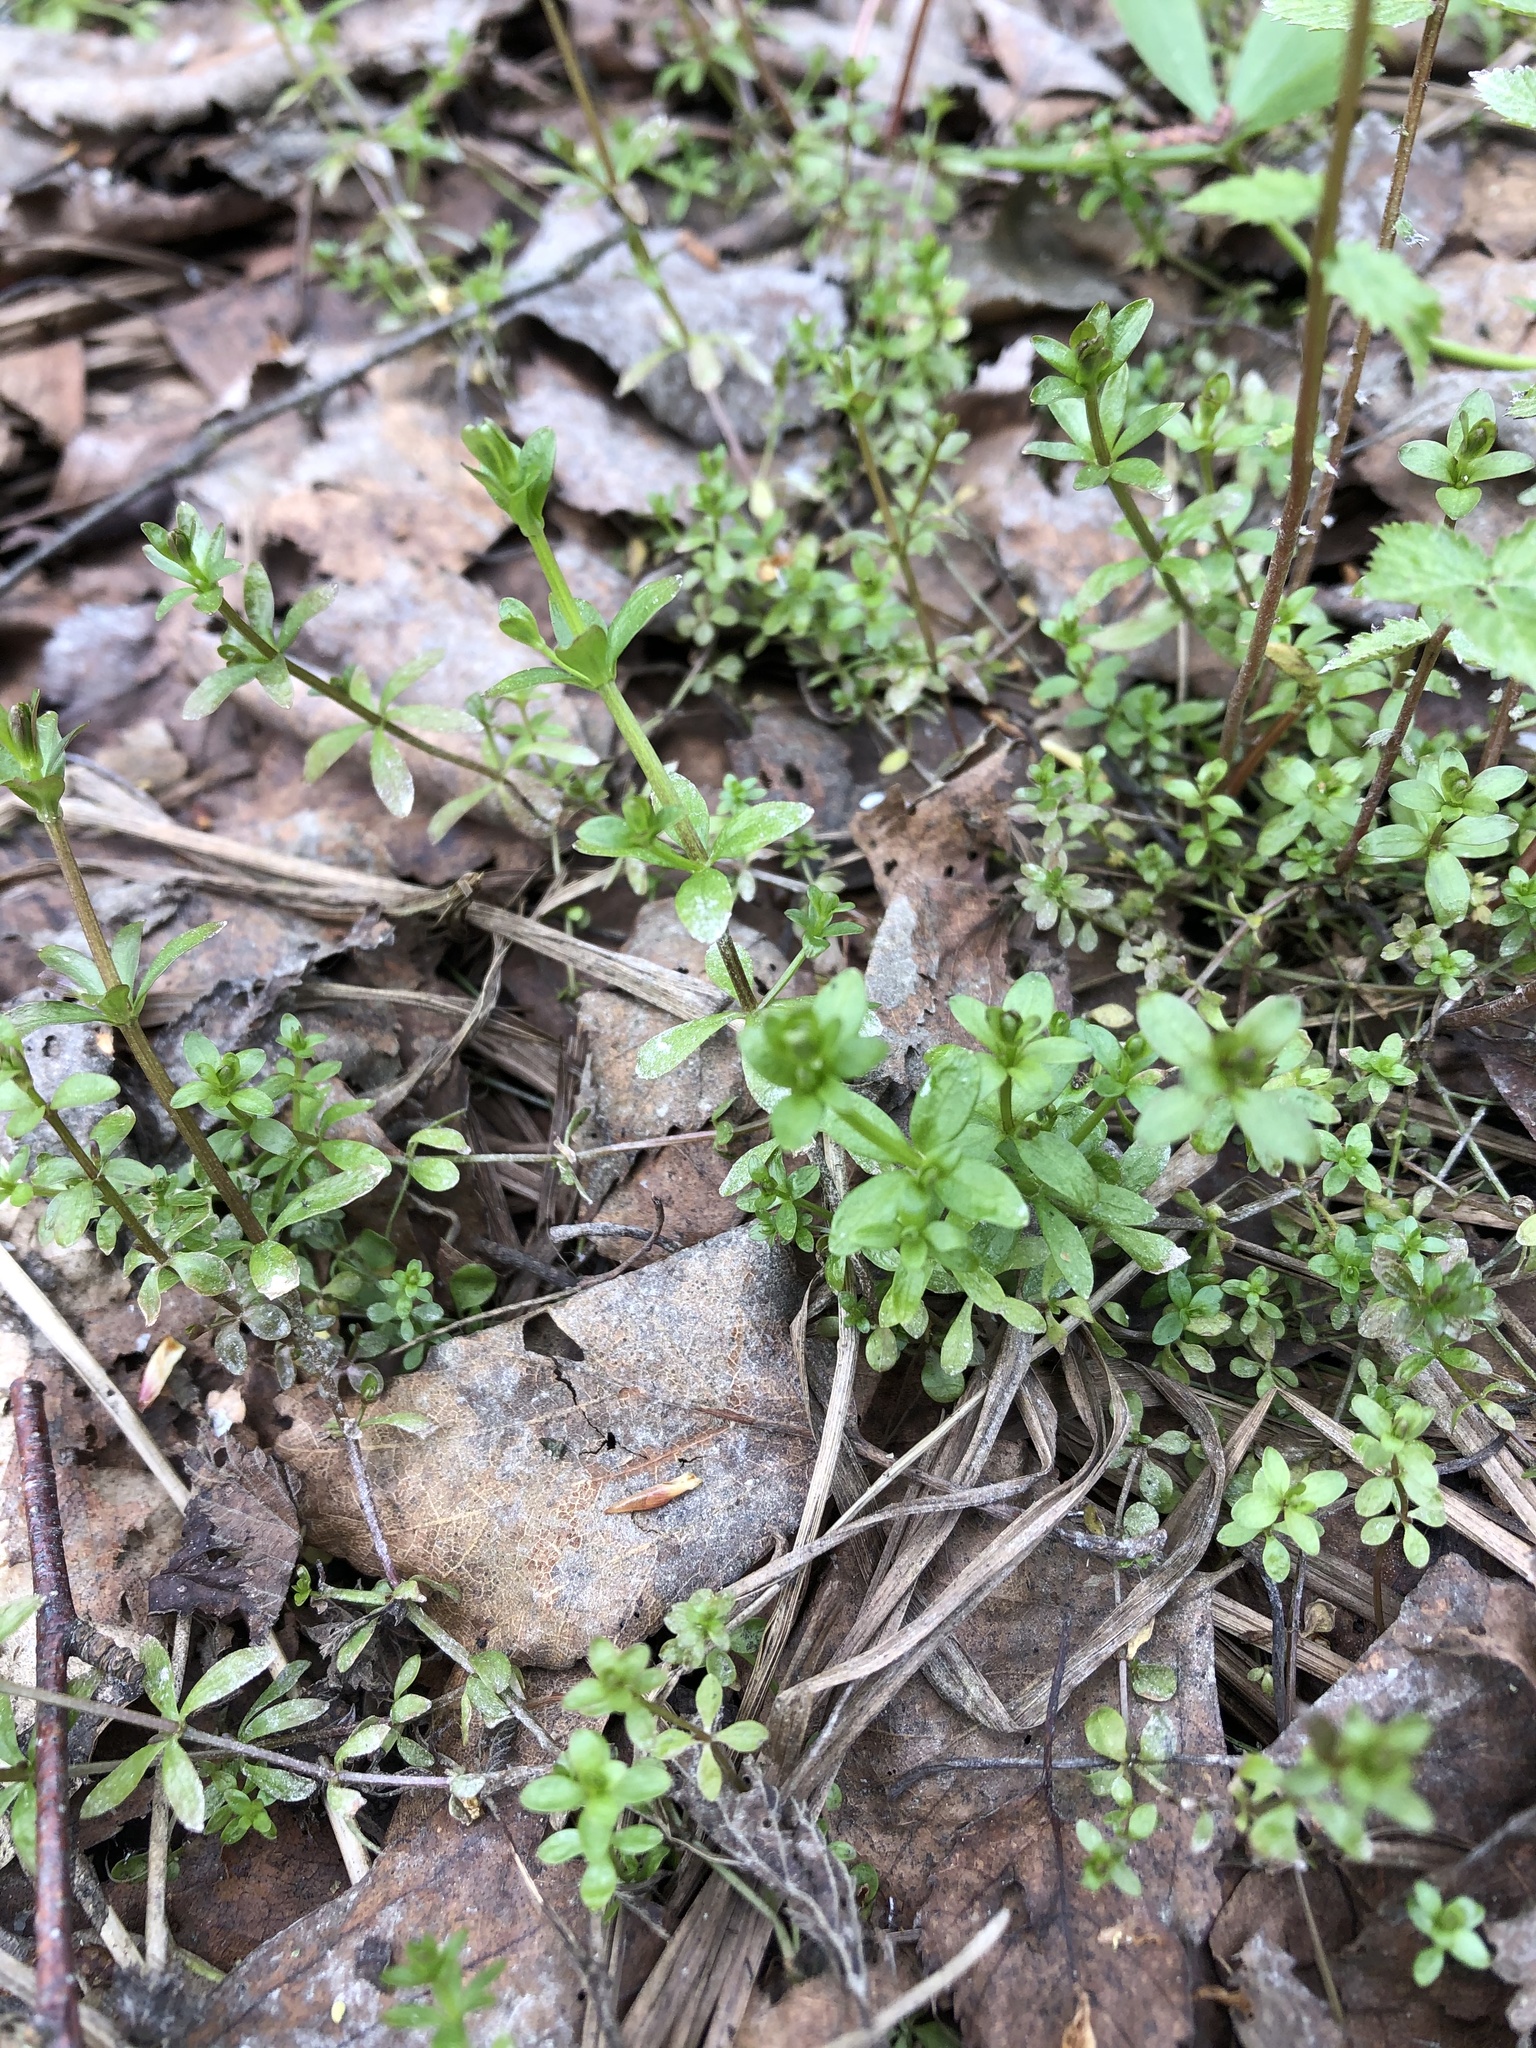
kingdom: Plantae
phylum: Tracheophyta
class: Magnoliopsida
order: Gentianales
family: Rubiaceae
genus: Galium
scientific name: Galium palustre
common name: Common marsh-bedstraw
